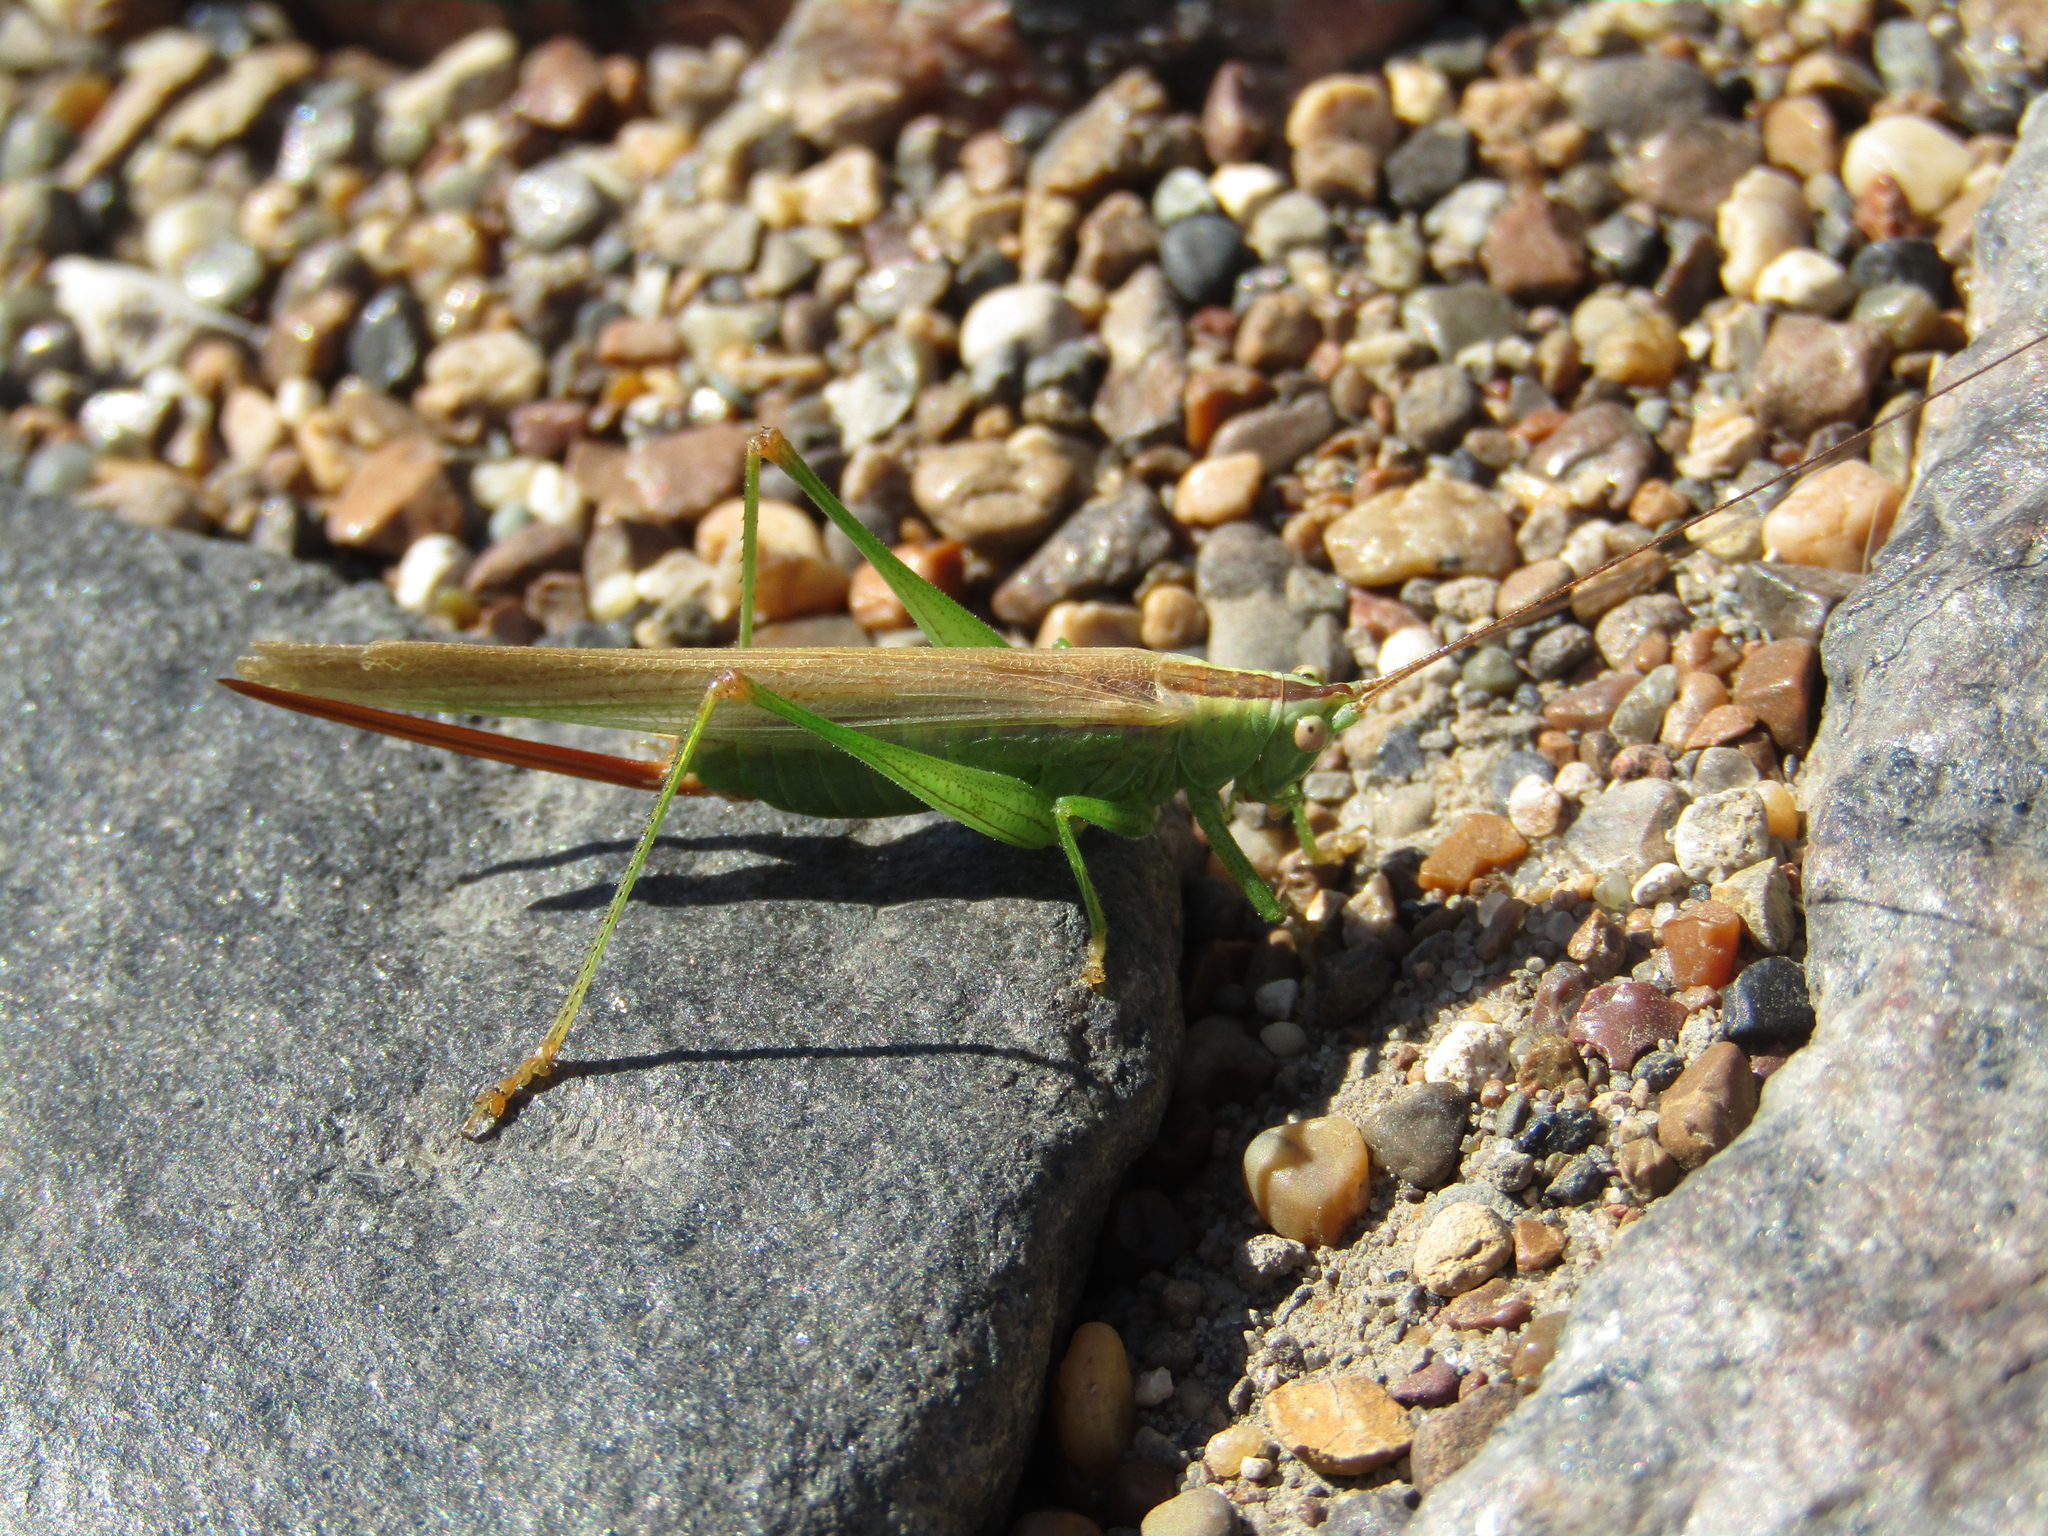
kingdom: Animalia
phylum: Arthropoda
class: Insecta
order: Orthoptera
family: Tettigoniidae
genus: Conocephalus
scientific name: Conocephalus fuscus
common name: Long-winged conehead
